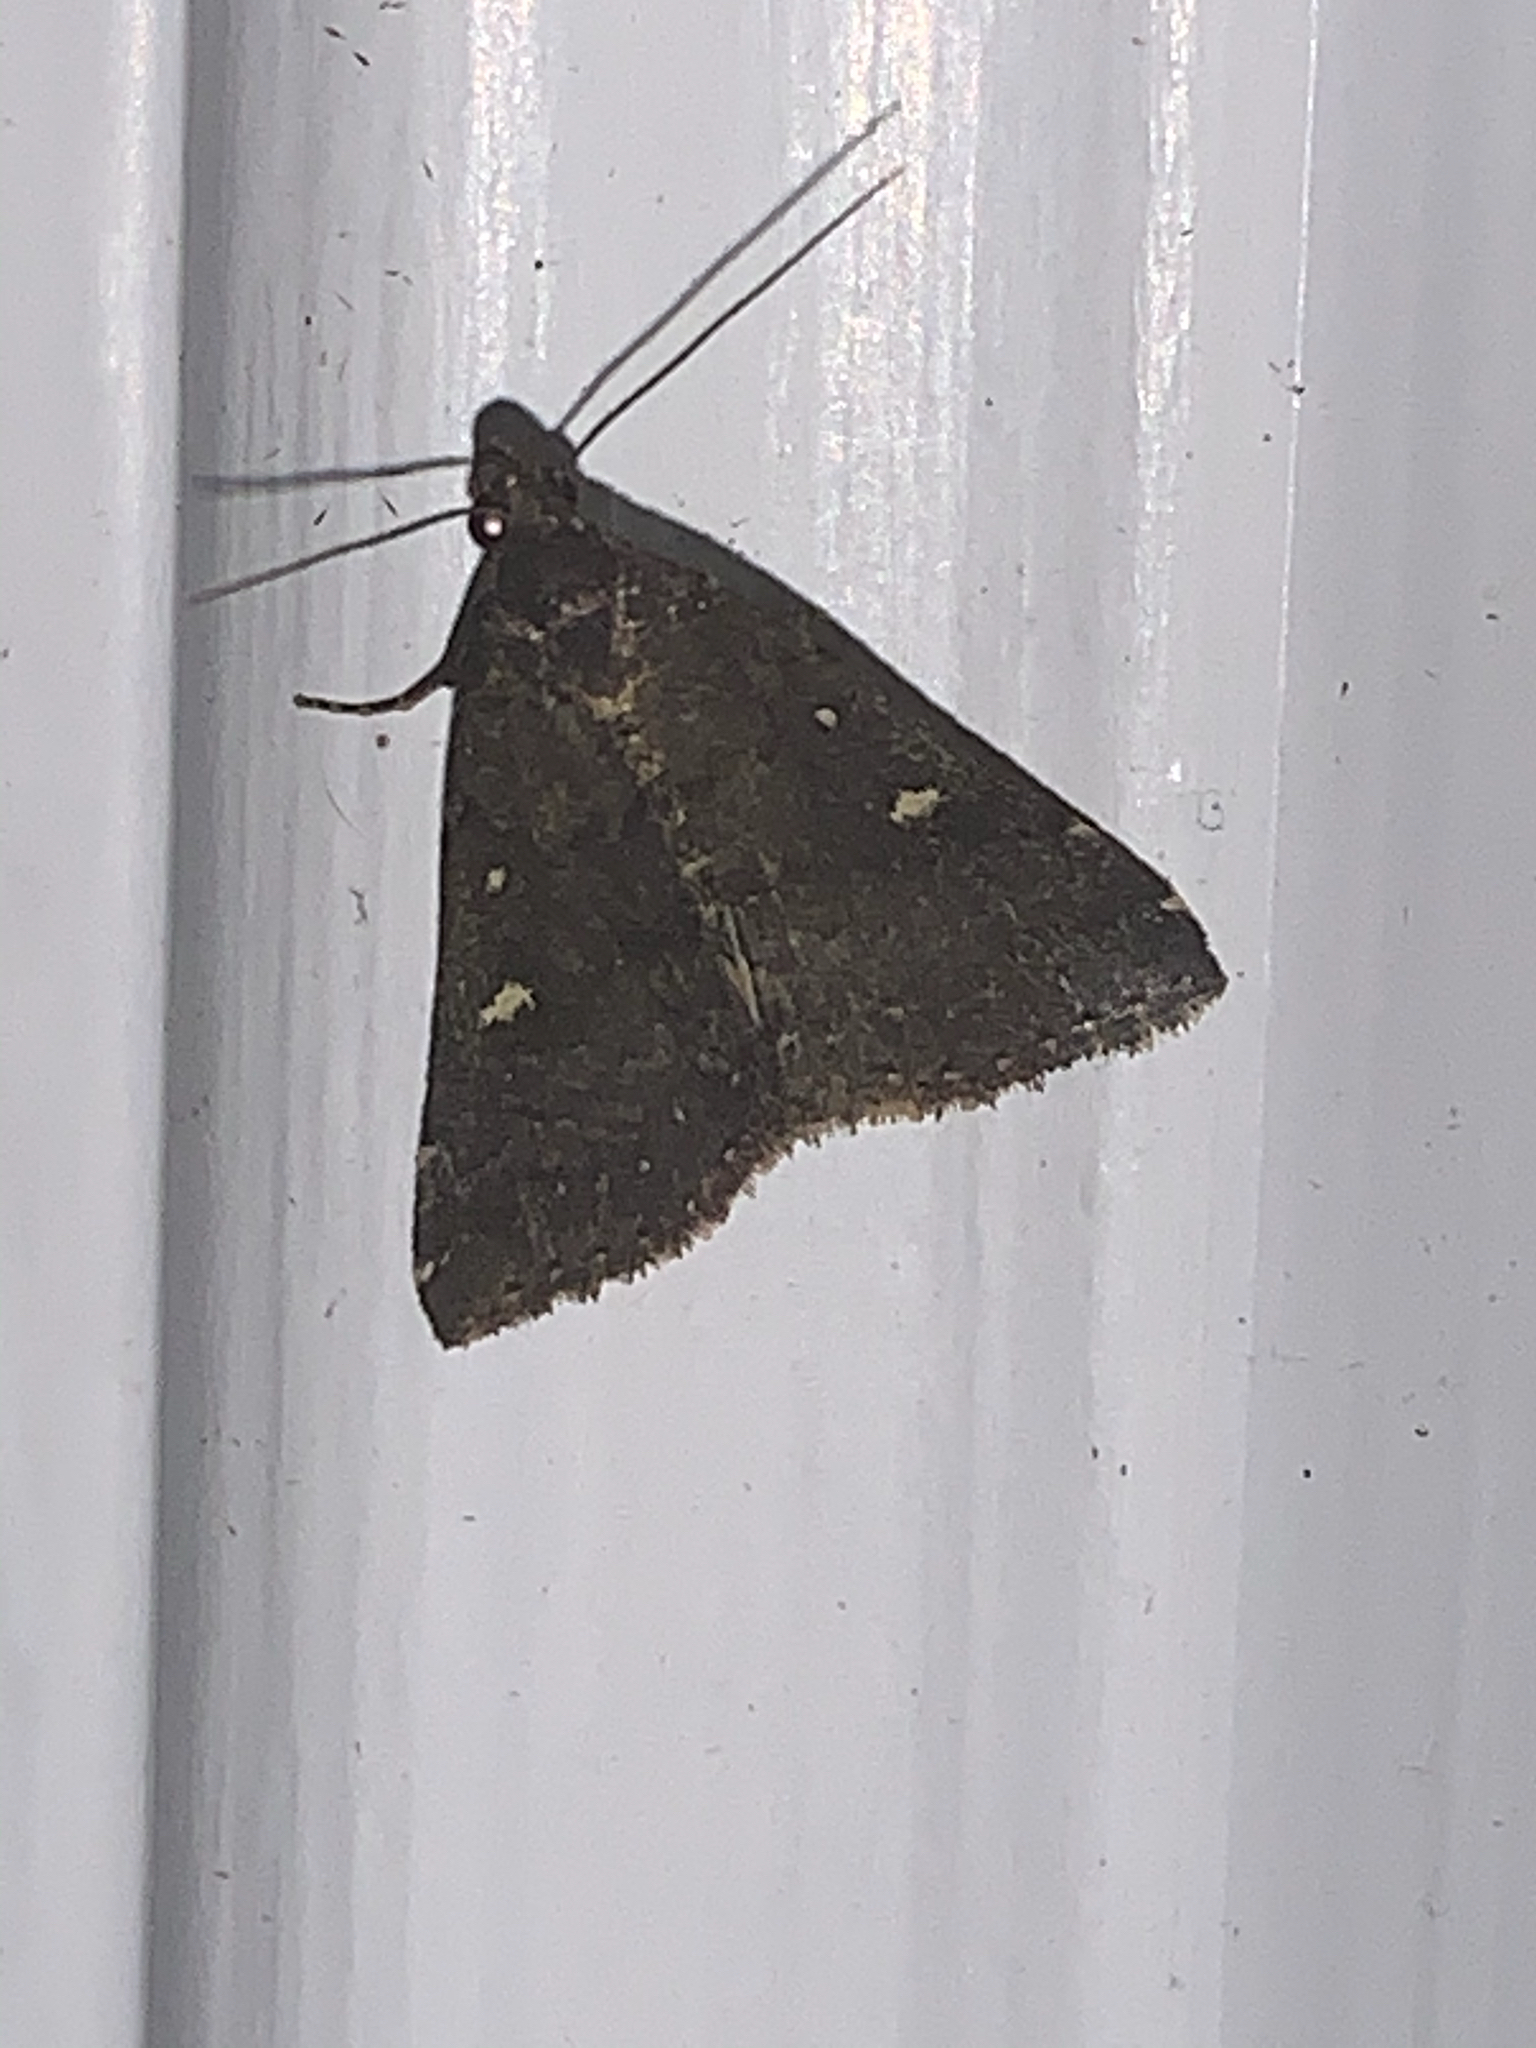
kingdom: Animalia
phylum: Arthropoda
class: Insecta
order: Lepidoptera
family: Erebidae
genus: Tetanolita
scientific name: Tetanolita mynesalis
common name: Smoky tetanolita moth
